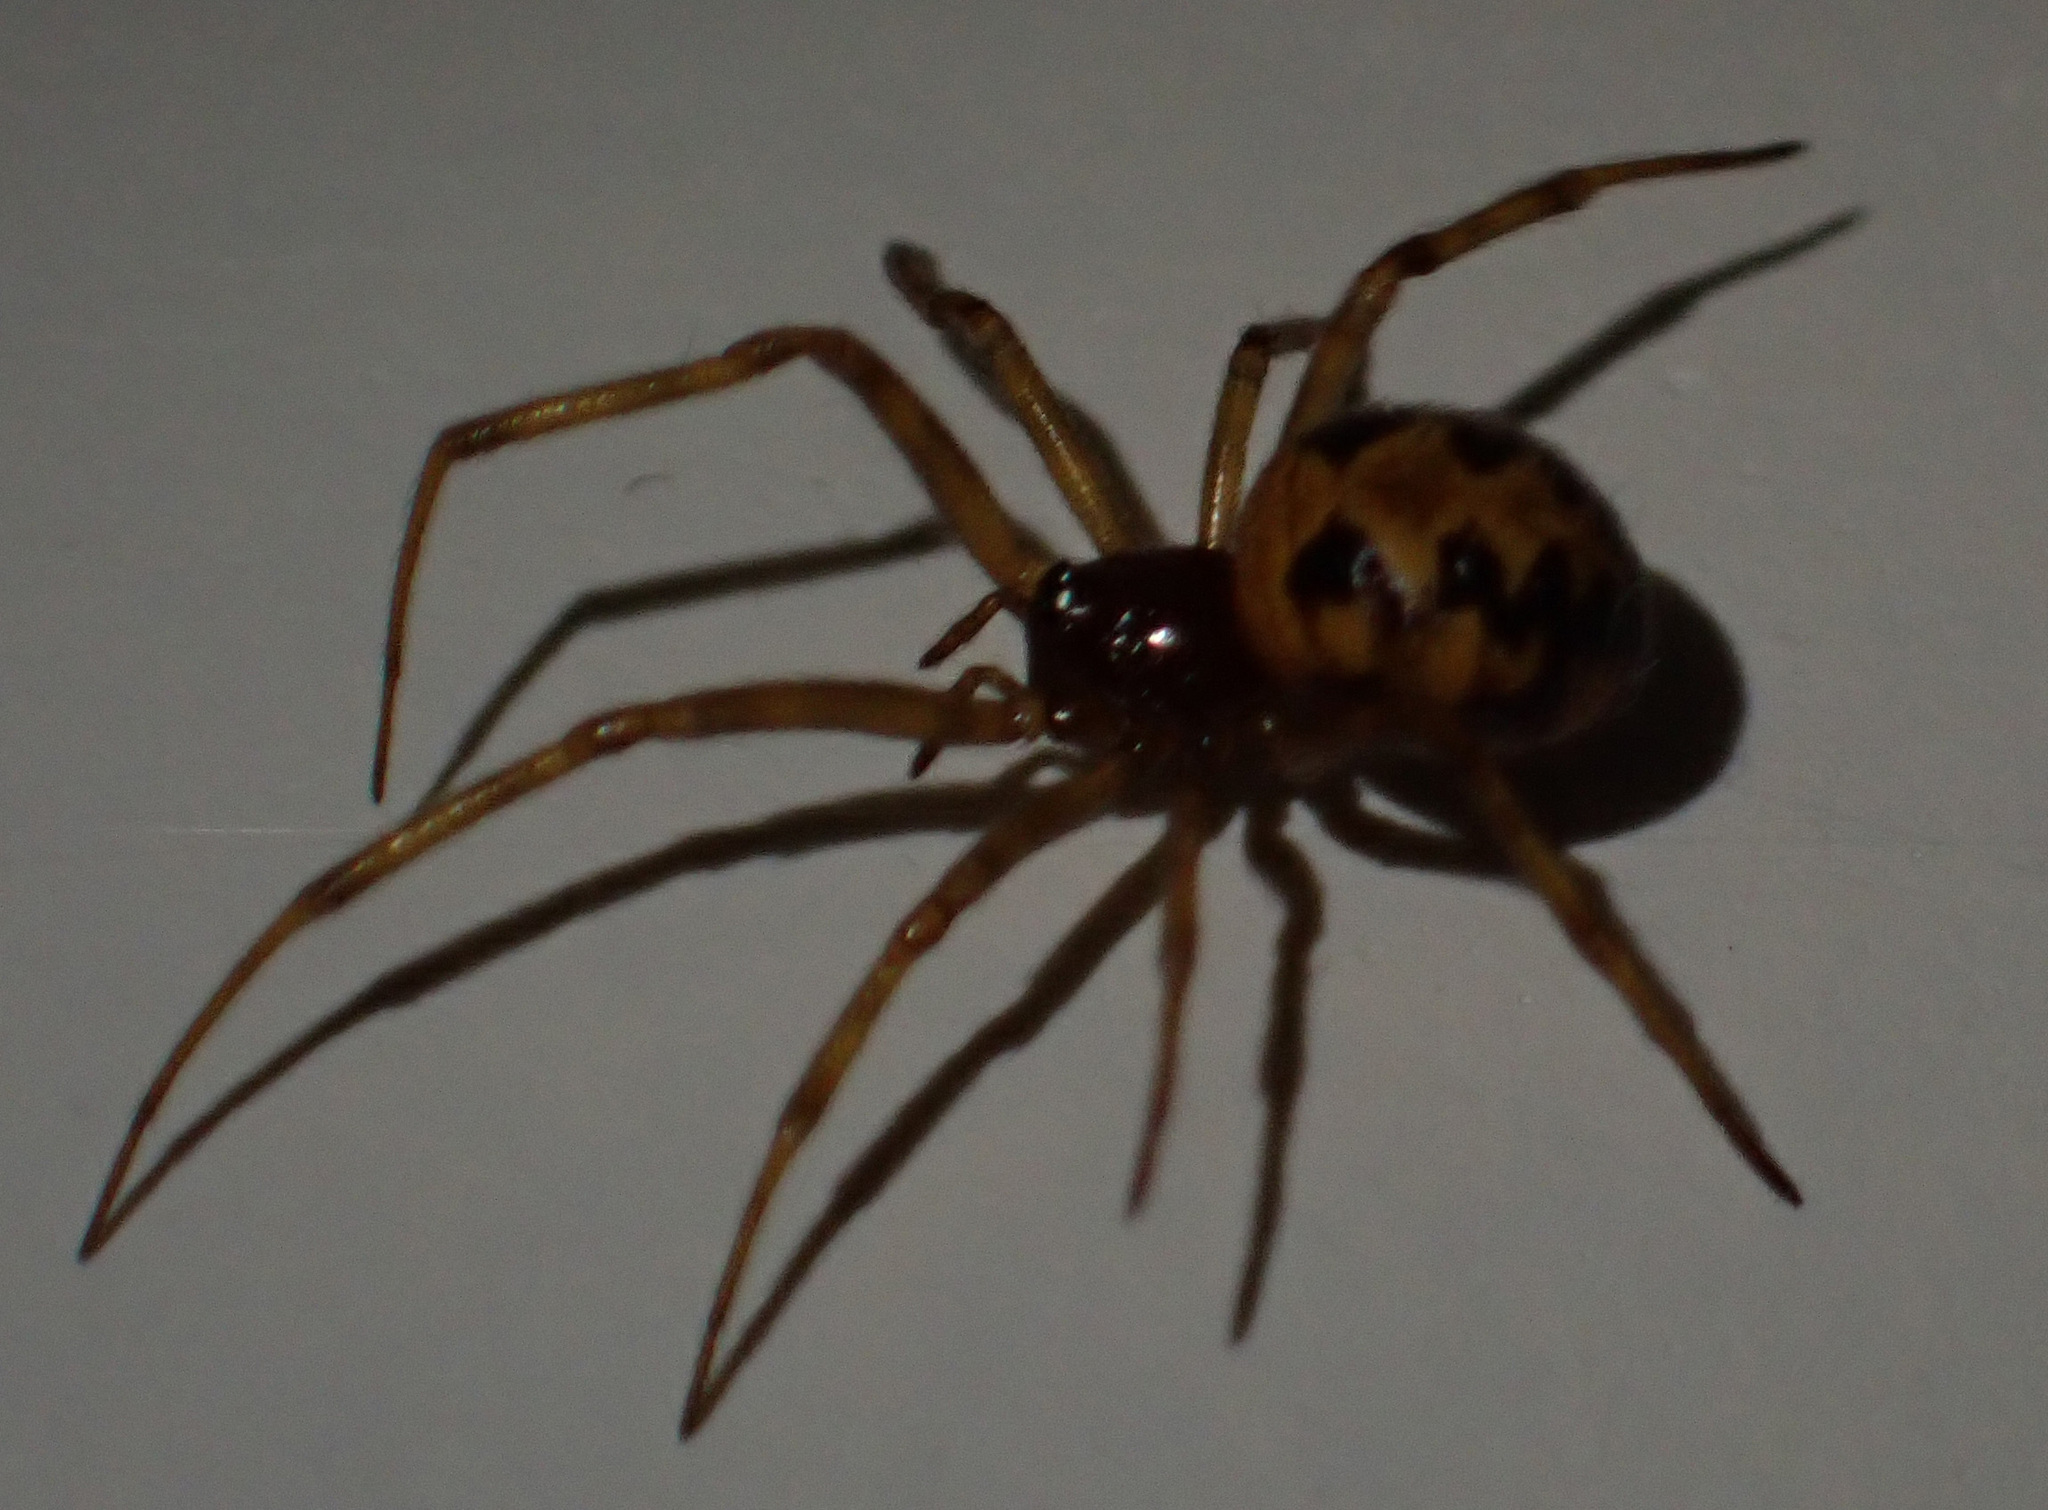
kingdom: Animalia
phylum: Arthropoda
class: Arachnida
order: Araneae
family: Theridiidae
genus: Steatoda
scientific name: Steatoda triangulosa
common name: Triangulate bud spider
